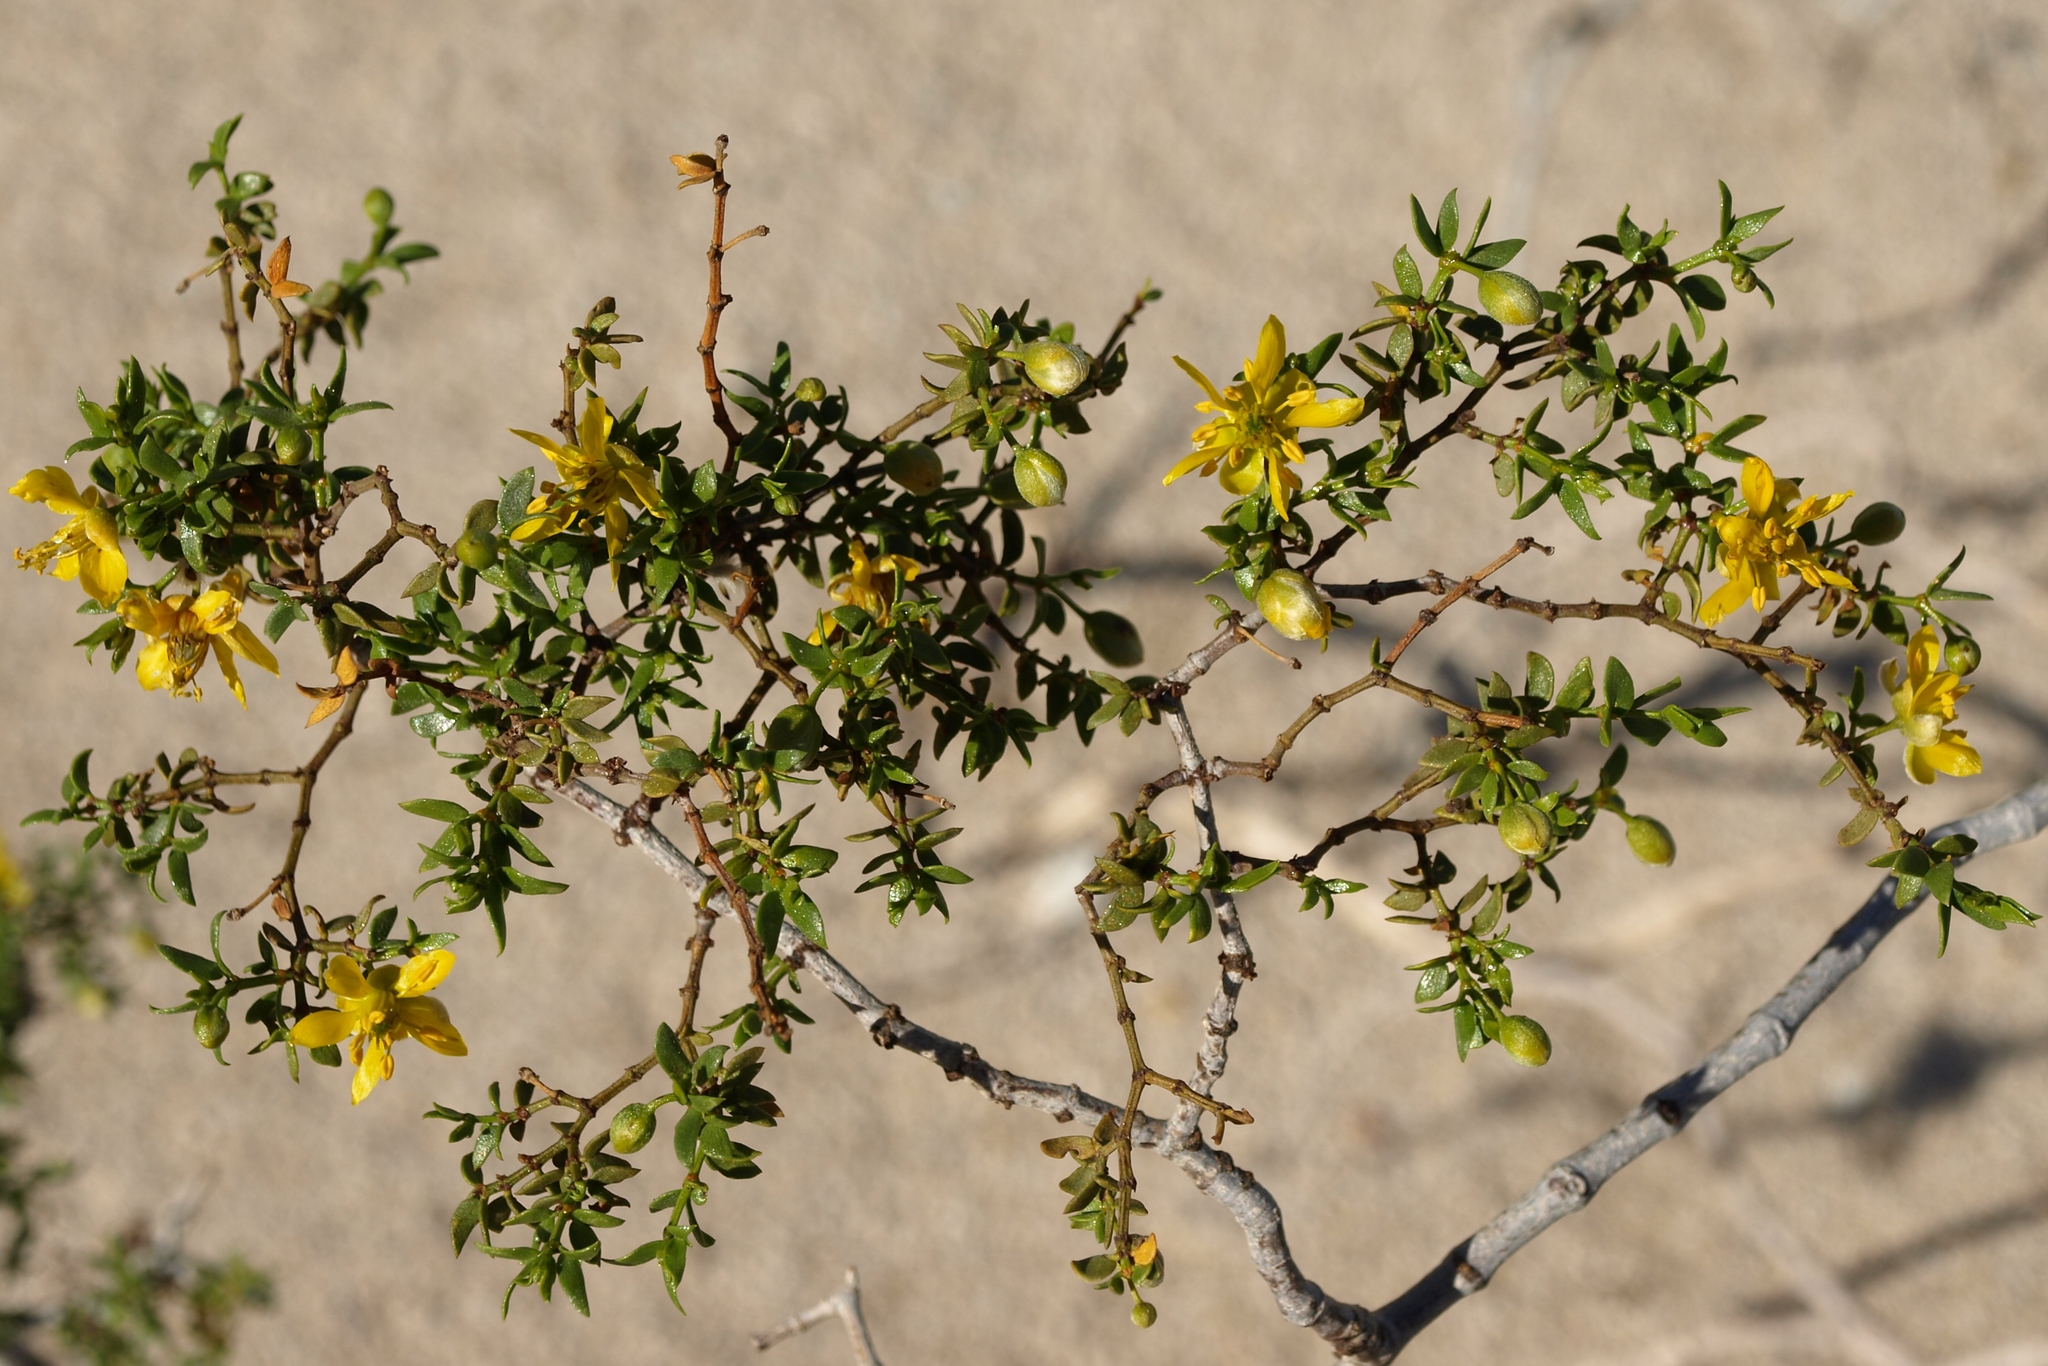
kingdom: Plantae
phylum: Tracheophyta
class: Magnoliopsida
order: Zygophyllales
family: Zygophyllaceae
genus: Larrea
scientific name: Larrea tridentata
